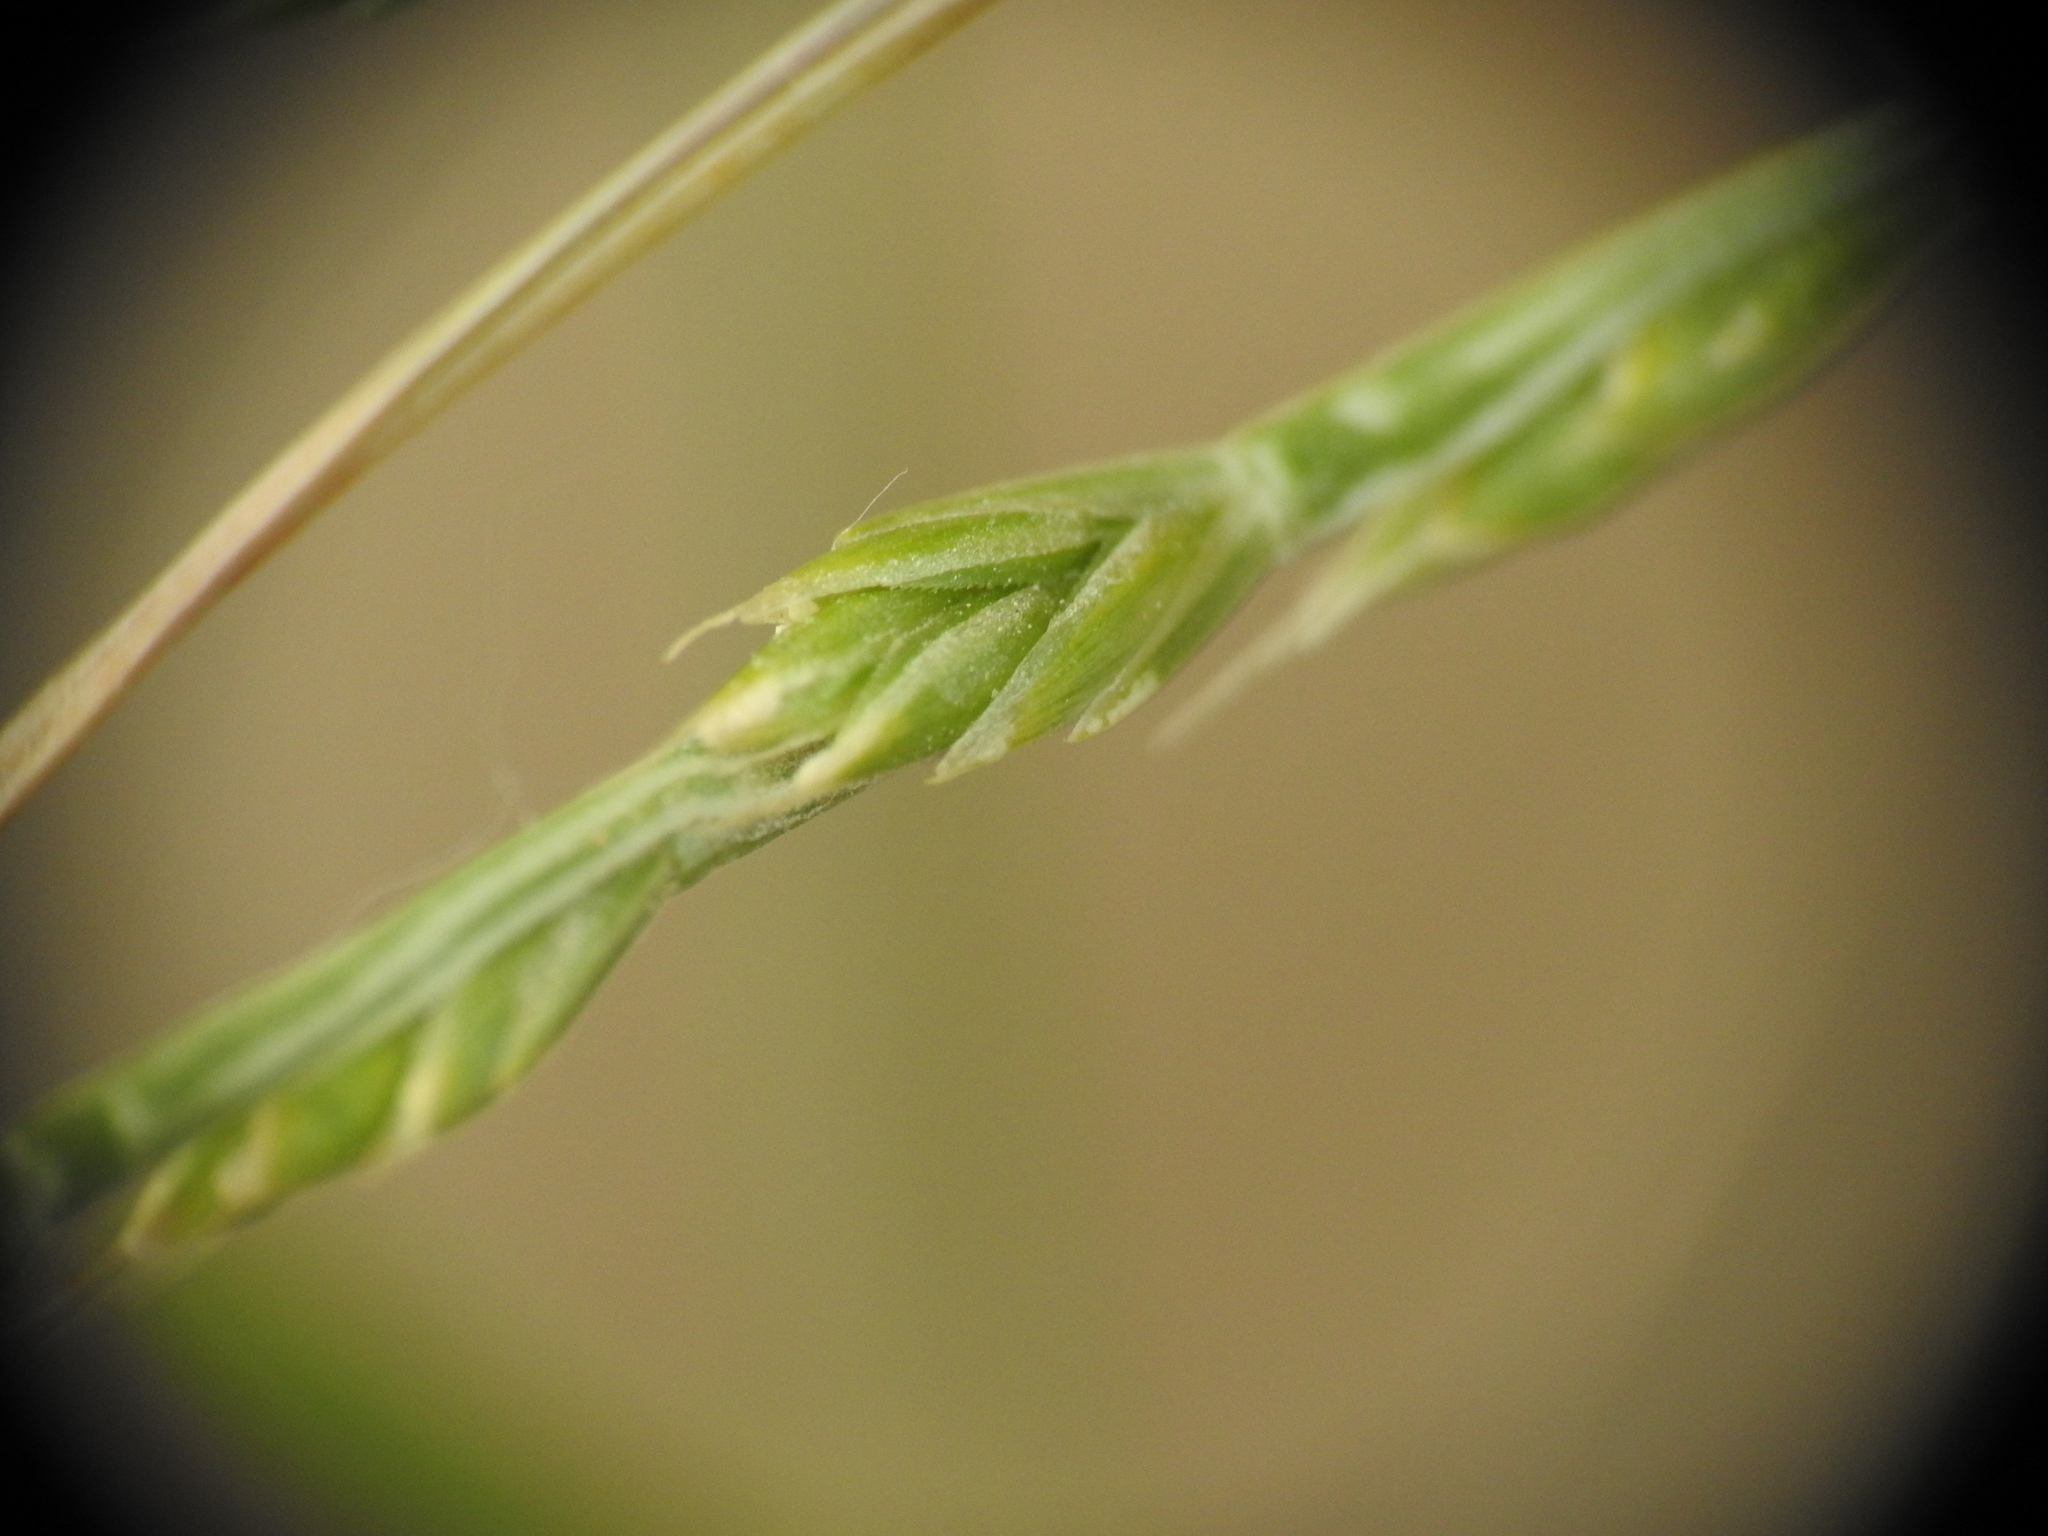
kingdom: Plantae
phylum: Tracheophyta
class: Liliopsida
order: Poales
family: Poaceae
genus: Lolium
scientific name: Lolium perenne
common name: Perennial ryegrass
